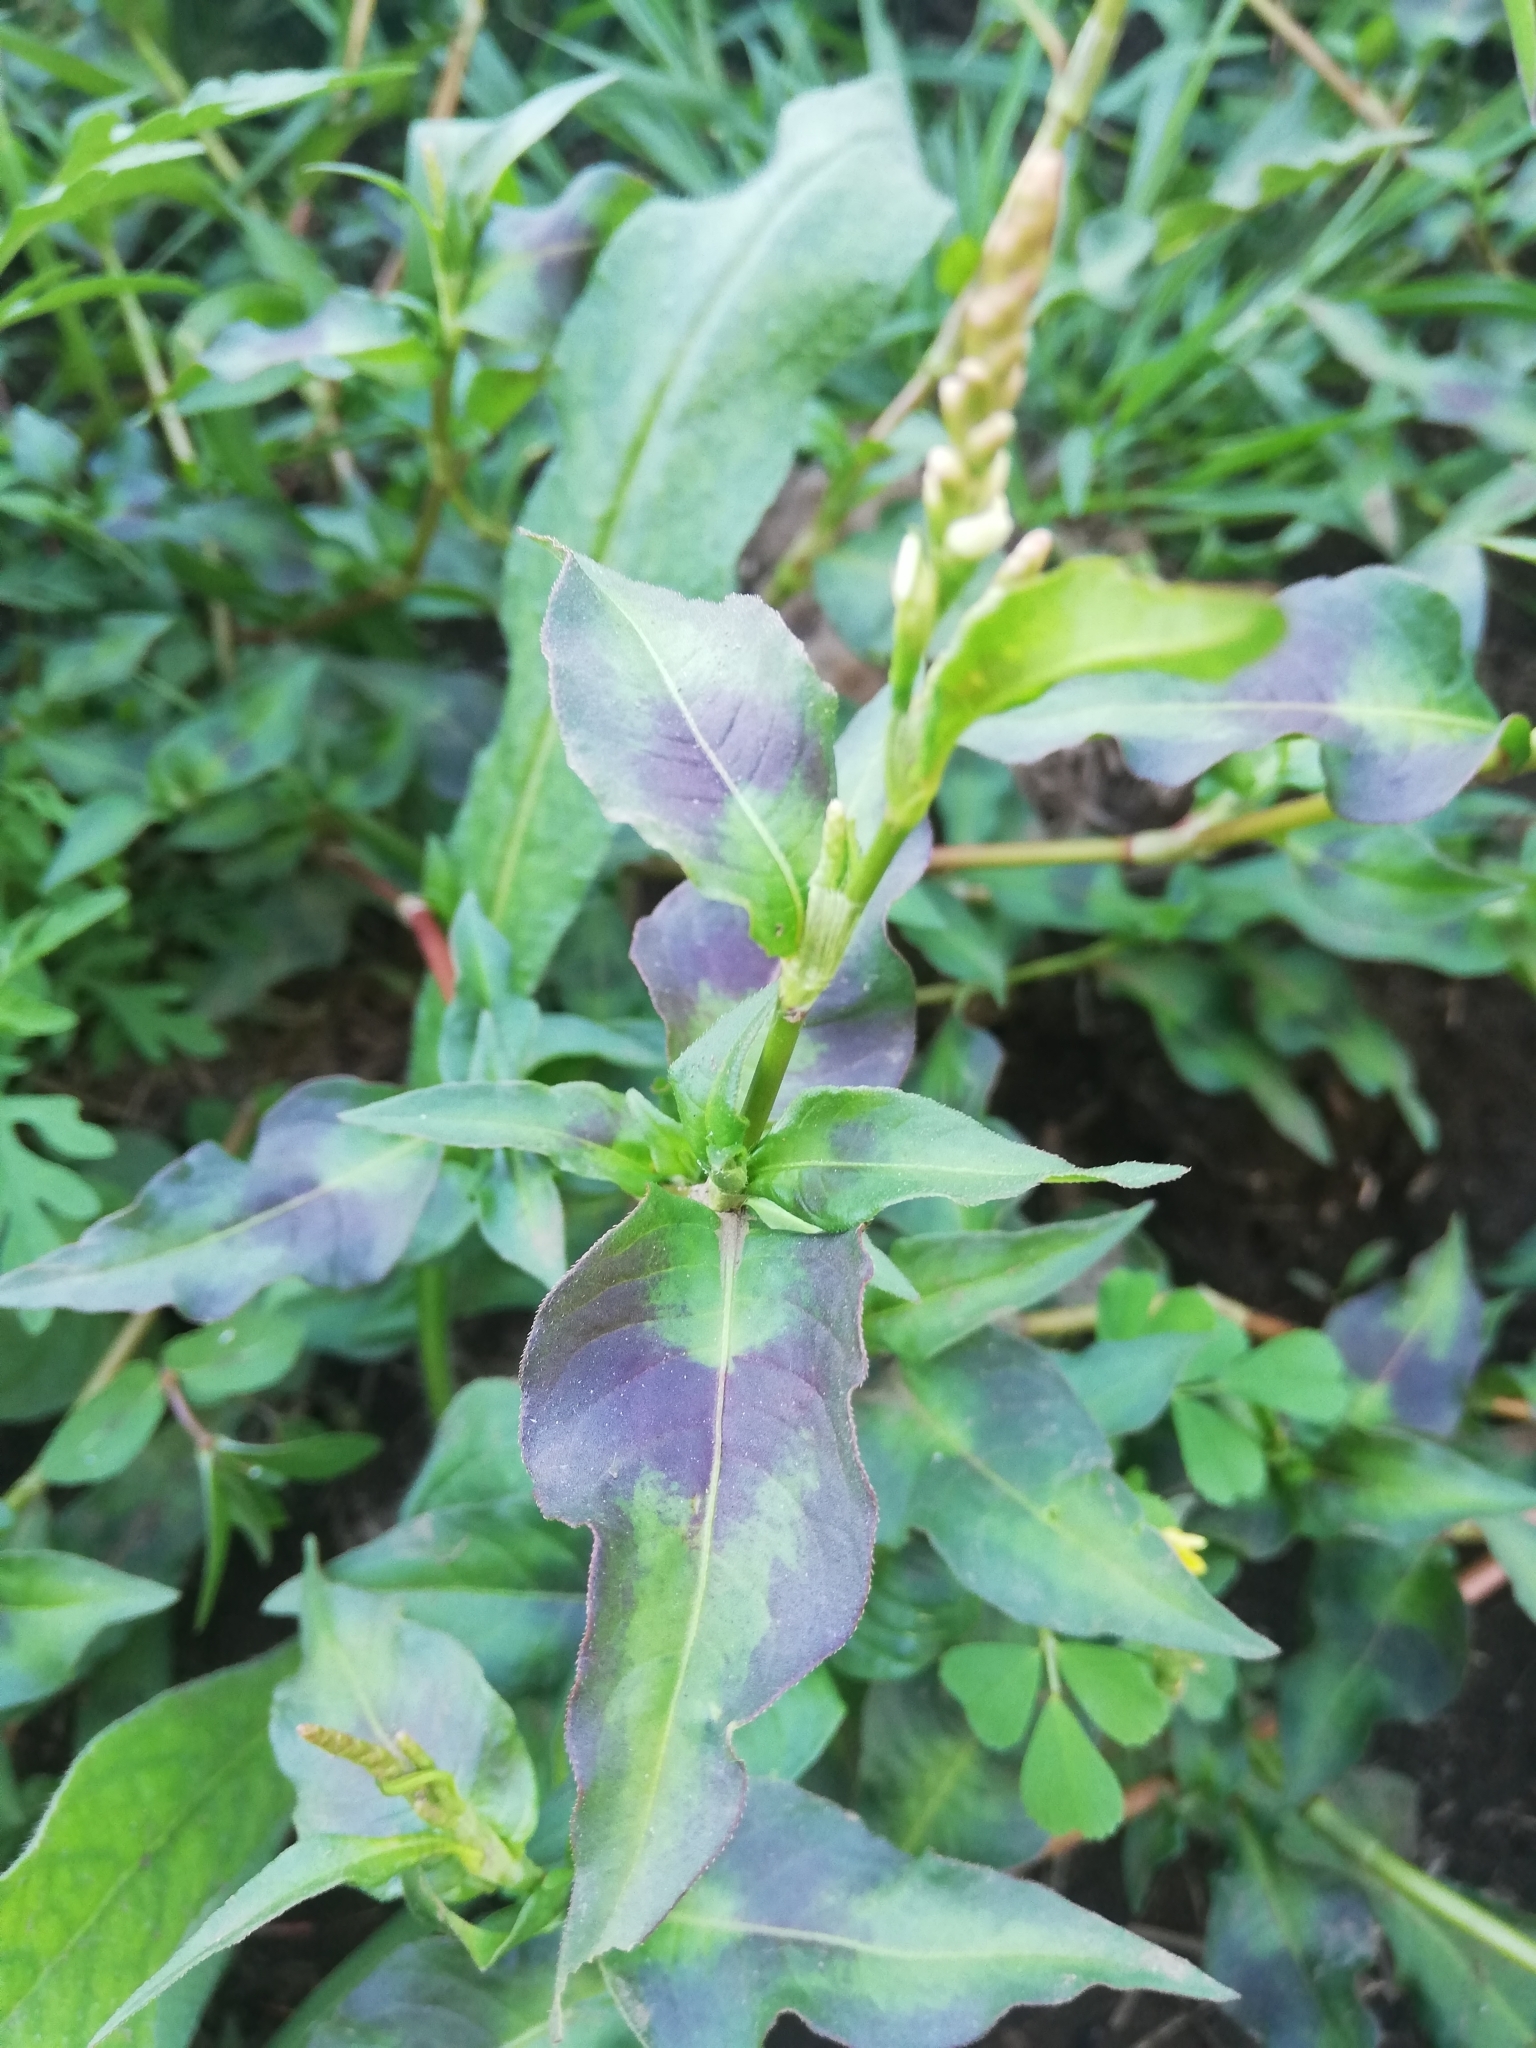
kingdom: Plantae
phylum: Tracheophyta
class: Magnoliopsida
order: Caryophyllales
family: Polygonaceae
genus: Persicaria
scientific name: Persicaria maculosa
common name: Redshank
